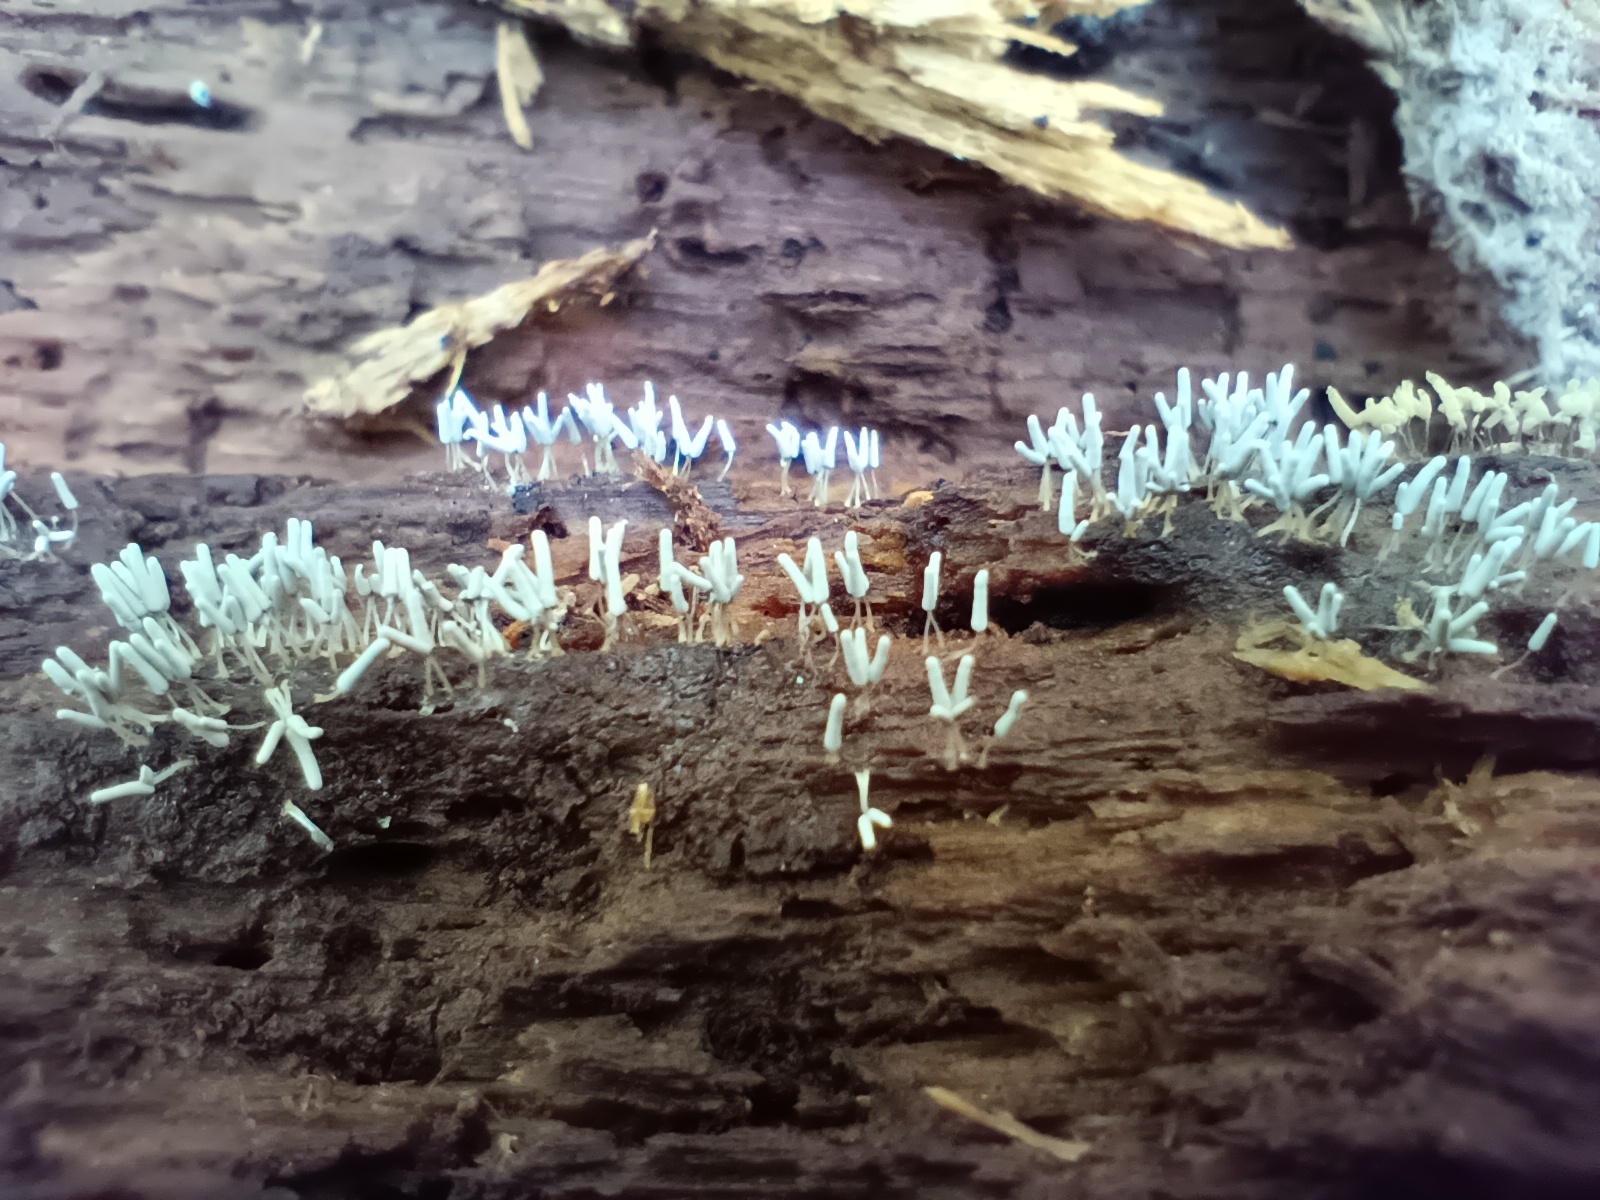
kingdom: Protozoa
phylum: Mycetozoa
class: Myxomycetes
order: Trichiales
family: Arcyriaceae
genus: Arcyria
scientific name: Arcyria cinerea
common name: White carnival candy slime mold
